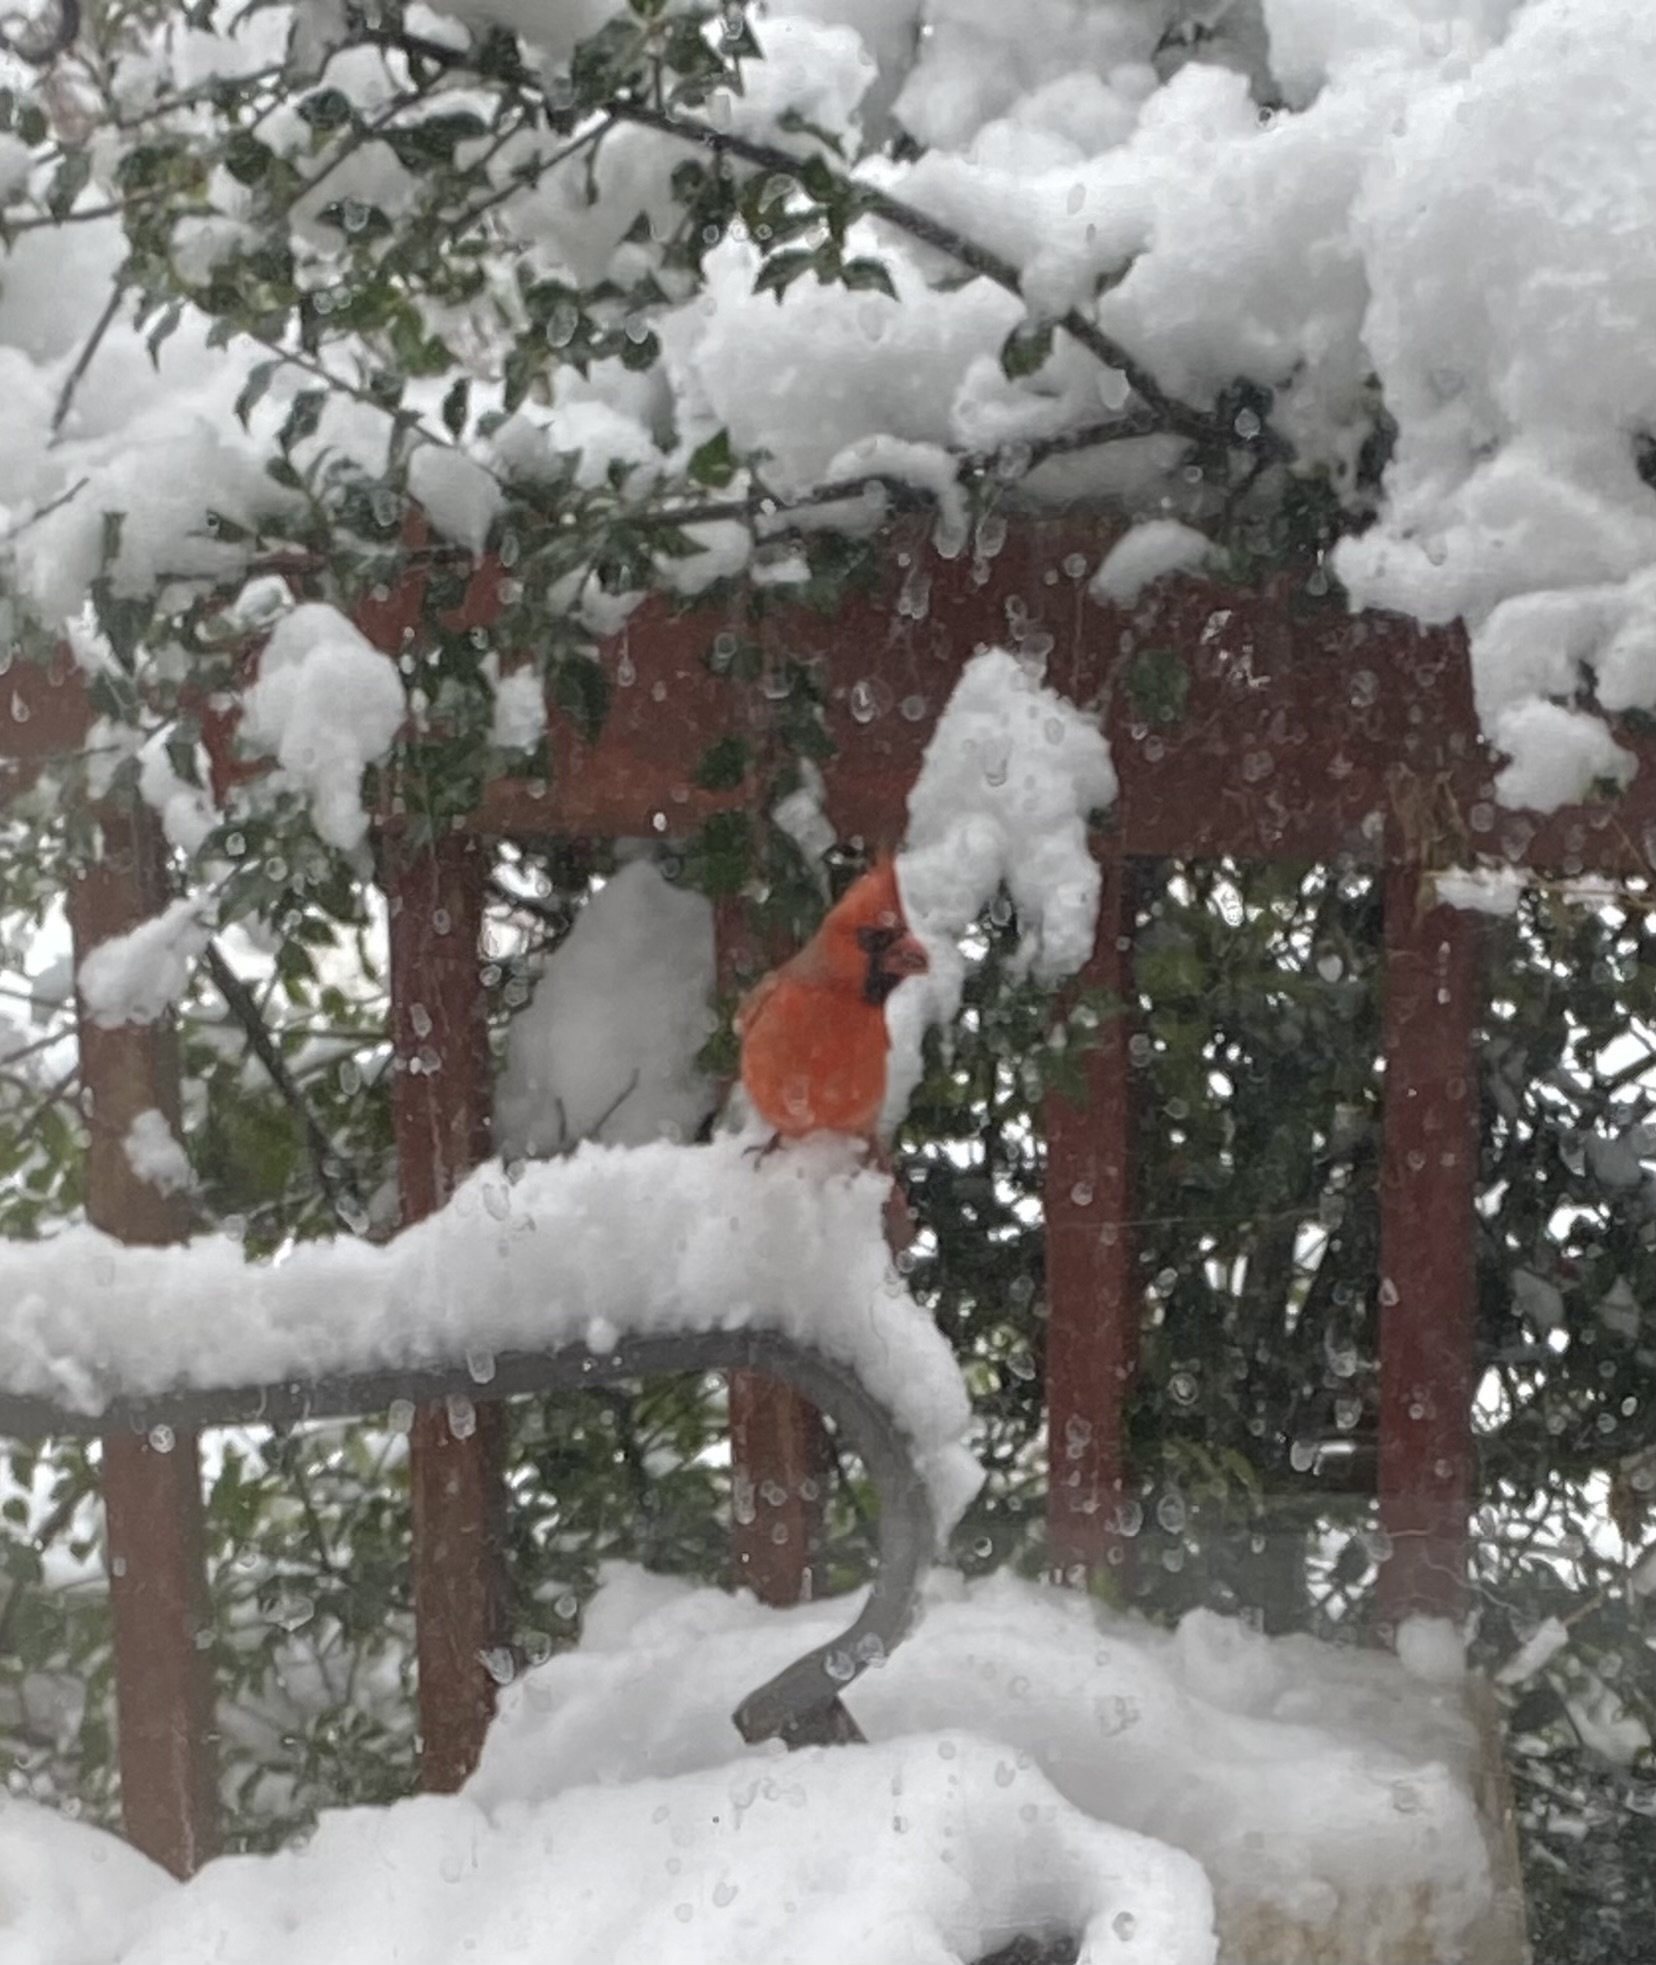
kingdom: Animalia
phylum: Chordata
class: Aves
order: Passeriformes
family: Cardinalidae
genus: Cardinalis
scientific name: Cardinalis cardinalis
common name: Northern cardinal
